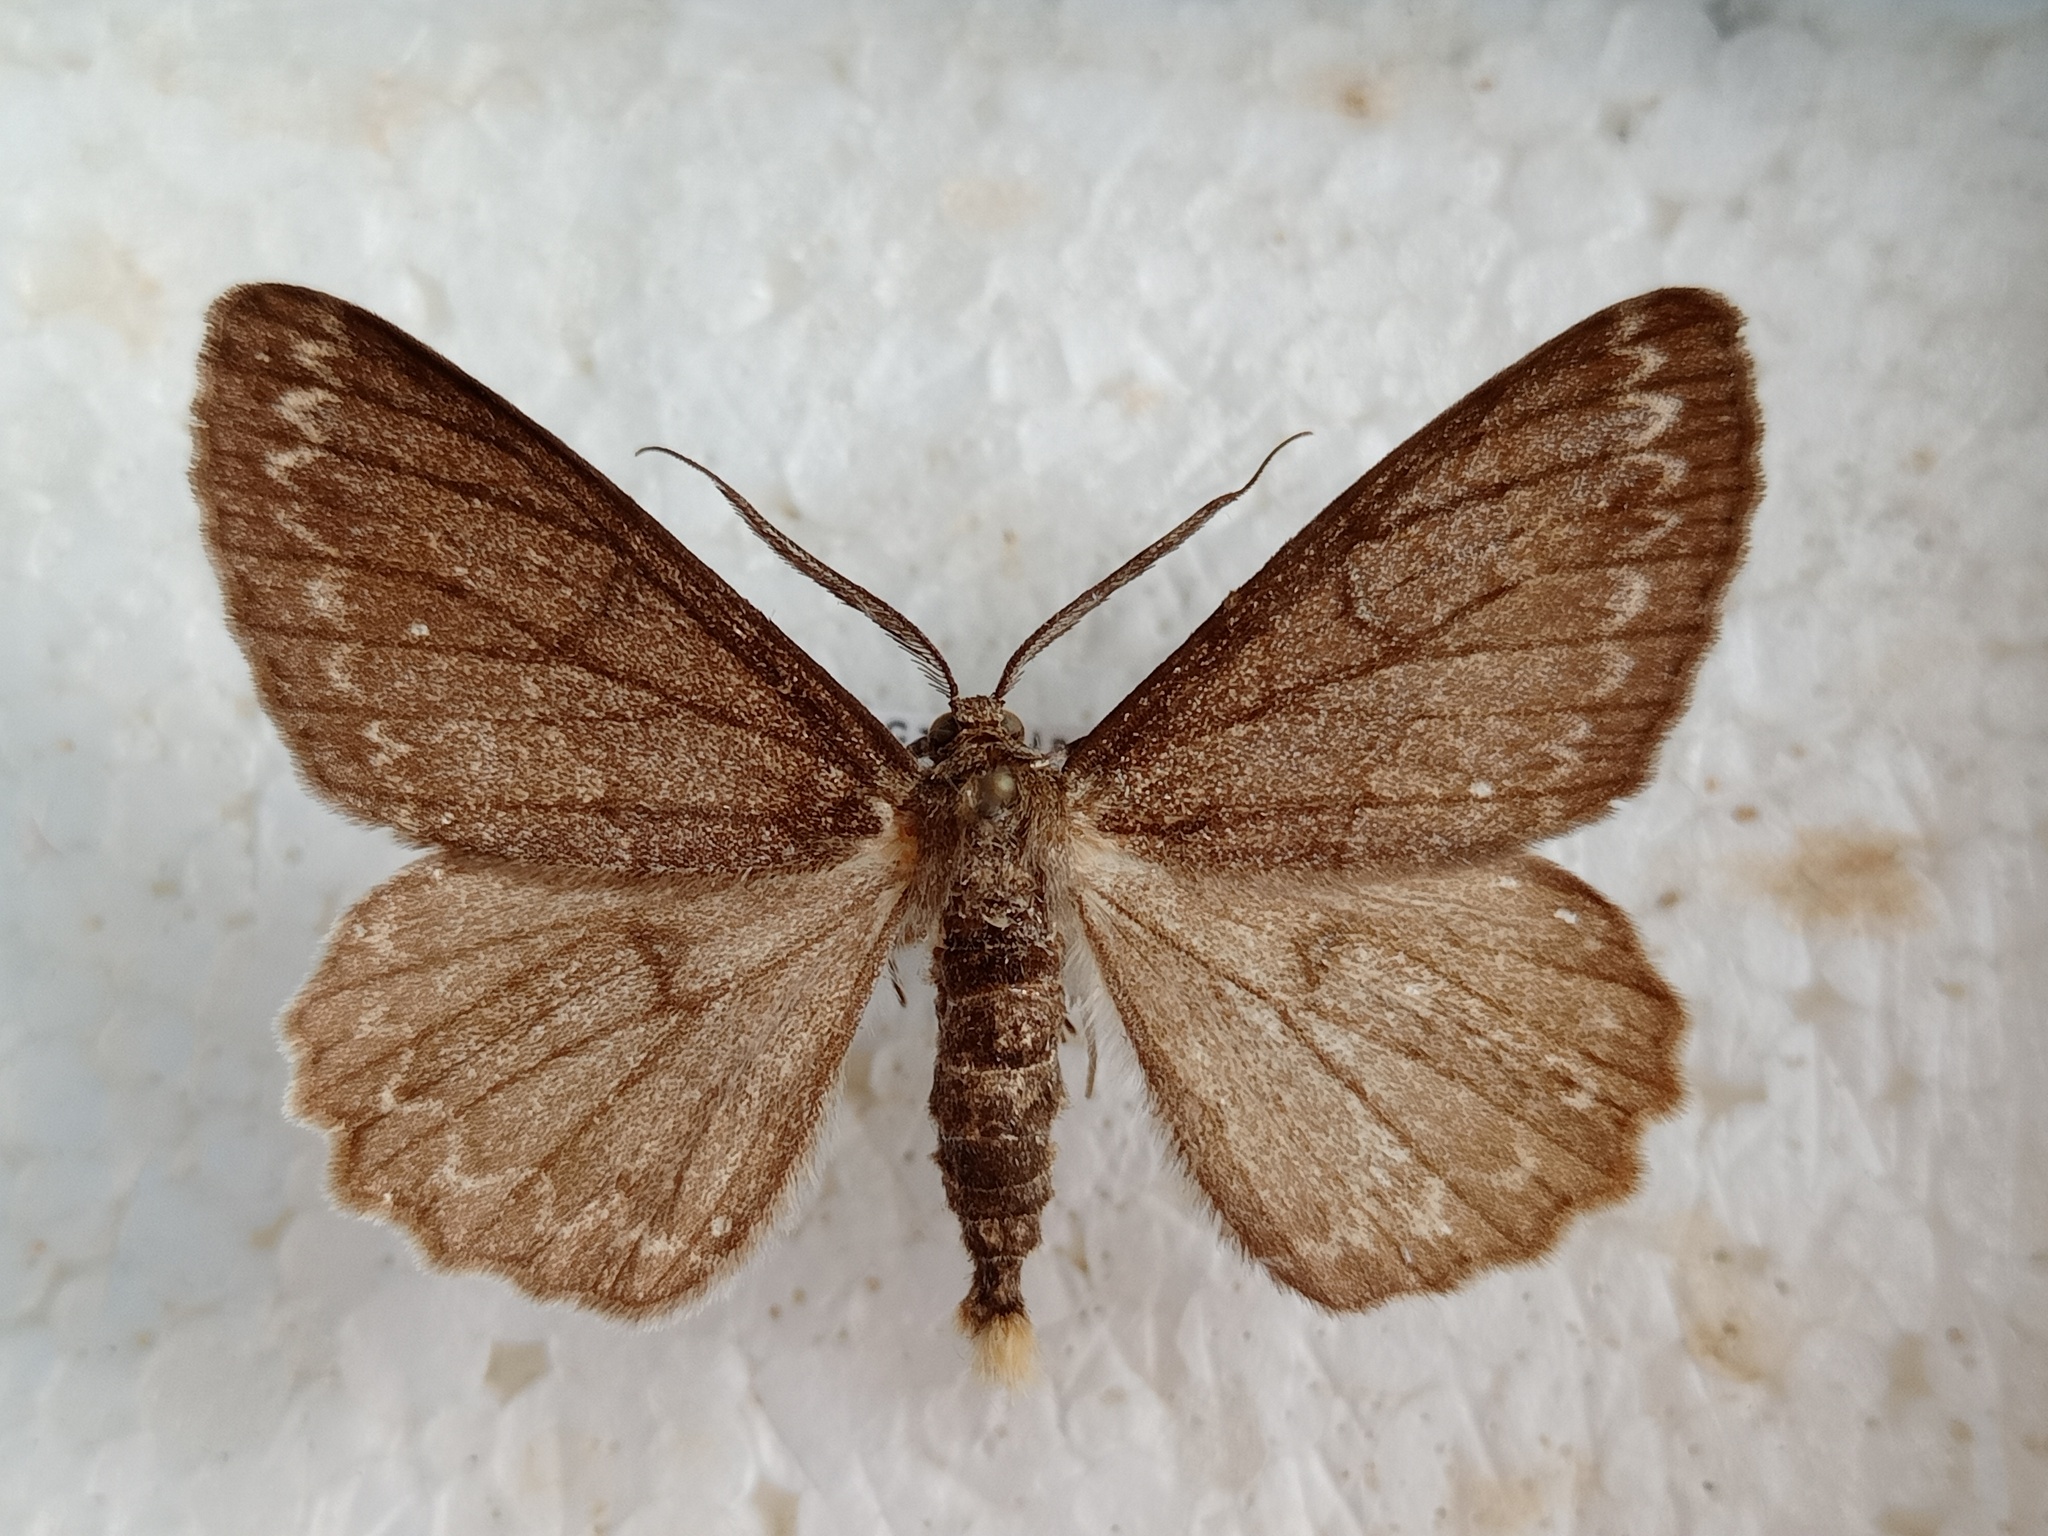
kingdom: Animalia
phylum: Arthropoda
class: Insecta
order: Lepidoptera
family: Geometridae
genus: Hypomecis
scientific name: Hypomecis punctinalis
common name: Pale oak beauty
